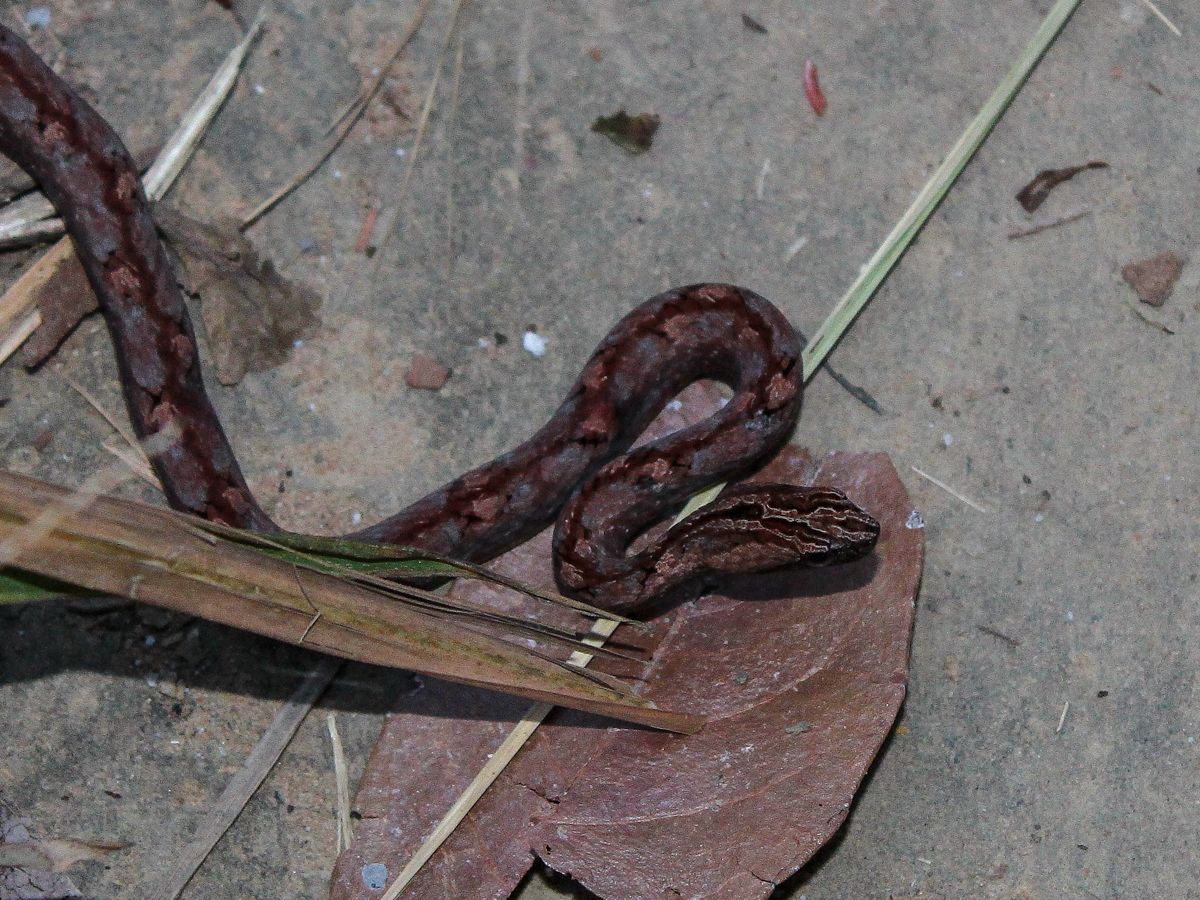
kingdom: Animalia
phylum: Chordata
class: Squamata
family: Pseudaspididae
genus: Psammodynastes
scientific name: Psammodynastes pulverulentus
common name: Common mock viper
